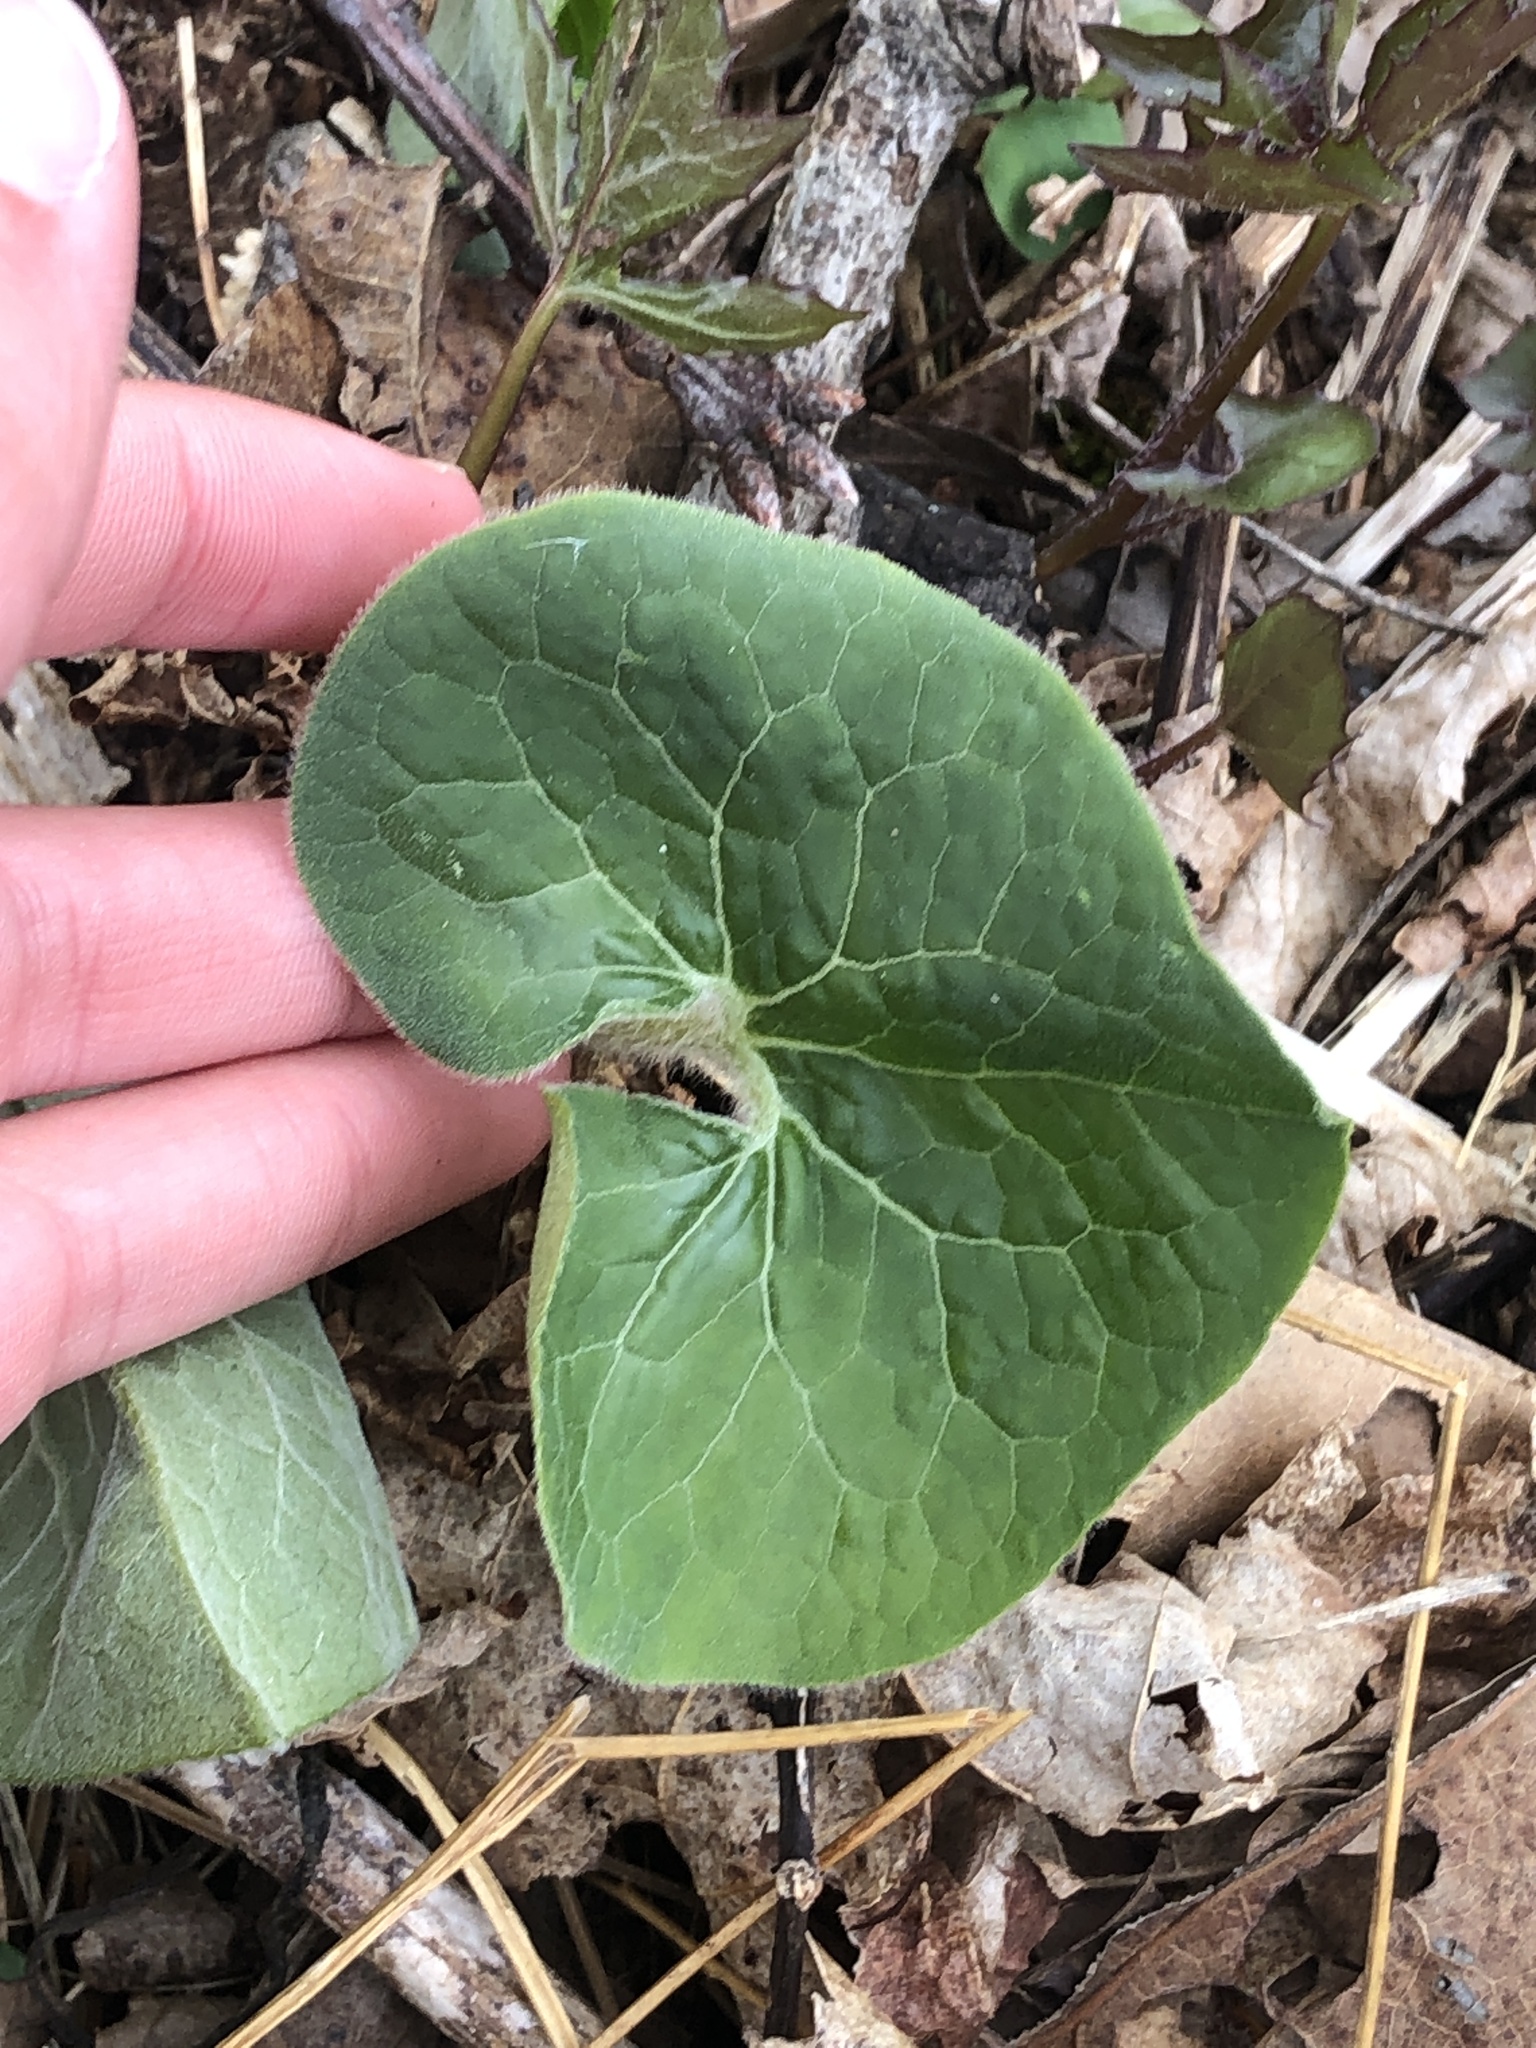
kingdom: Plantae
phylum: Tracheophyta
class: Magnoliopsida
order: Piperales
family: Aristolochiaceae
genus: Asarum
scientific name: Asarum canadense
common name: Wild ginger
